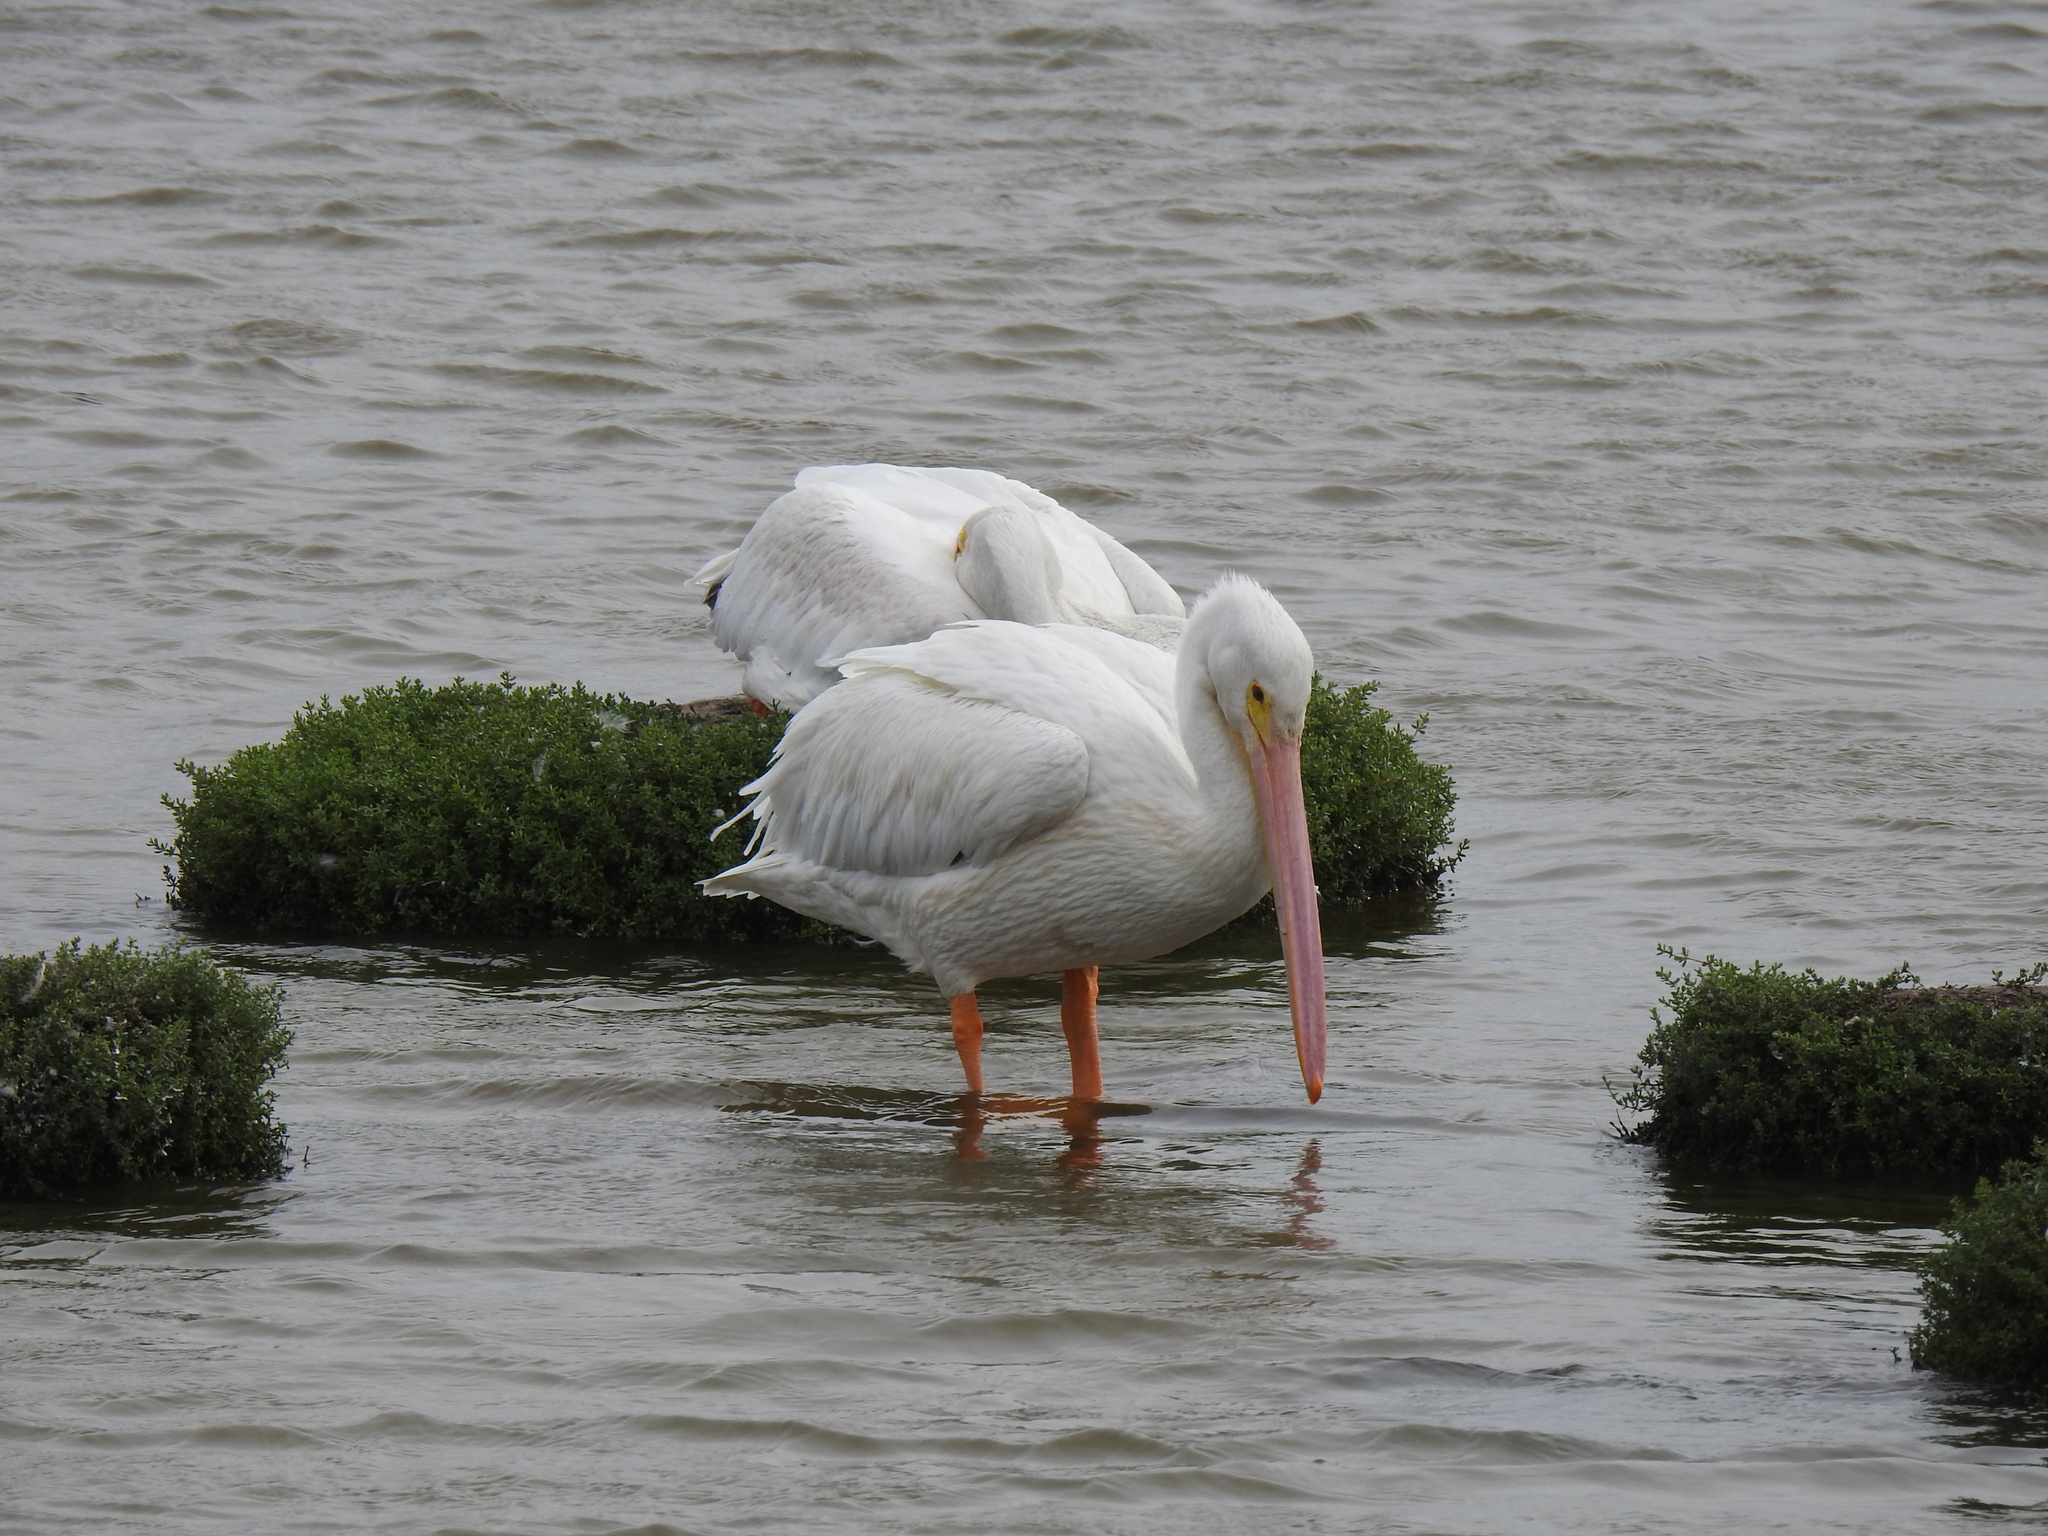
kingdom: Animalia
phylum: Chordata
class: Aves
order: Pelecaniformes
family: Pelecanidae
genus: Pelecanus
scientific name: Pelecanus erythrorhynchos
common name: American white pelican
